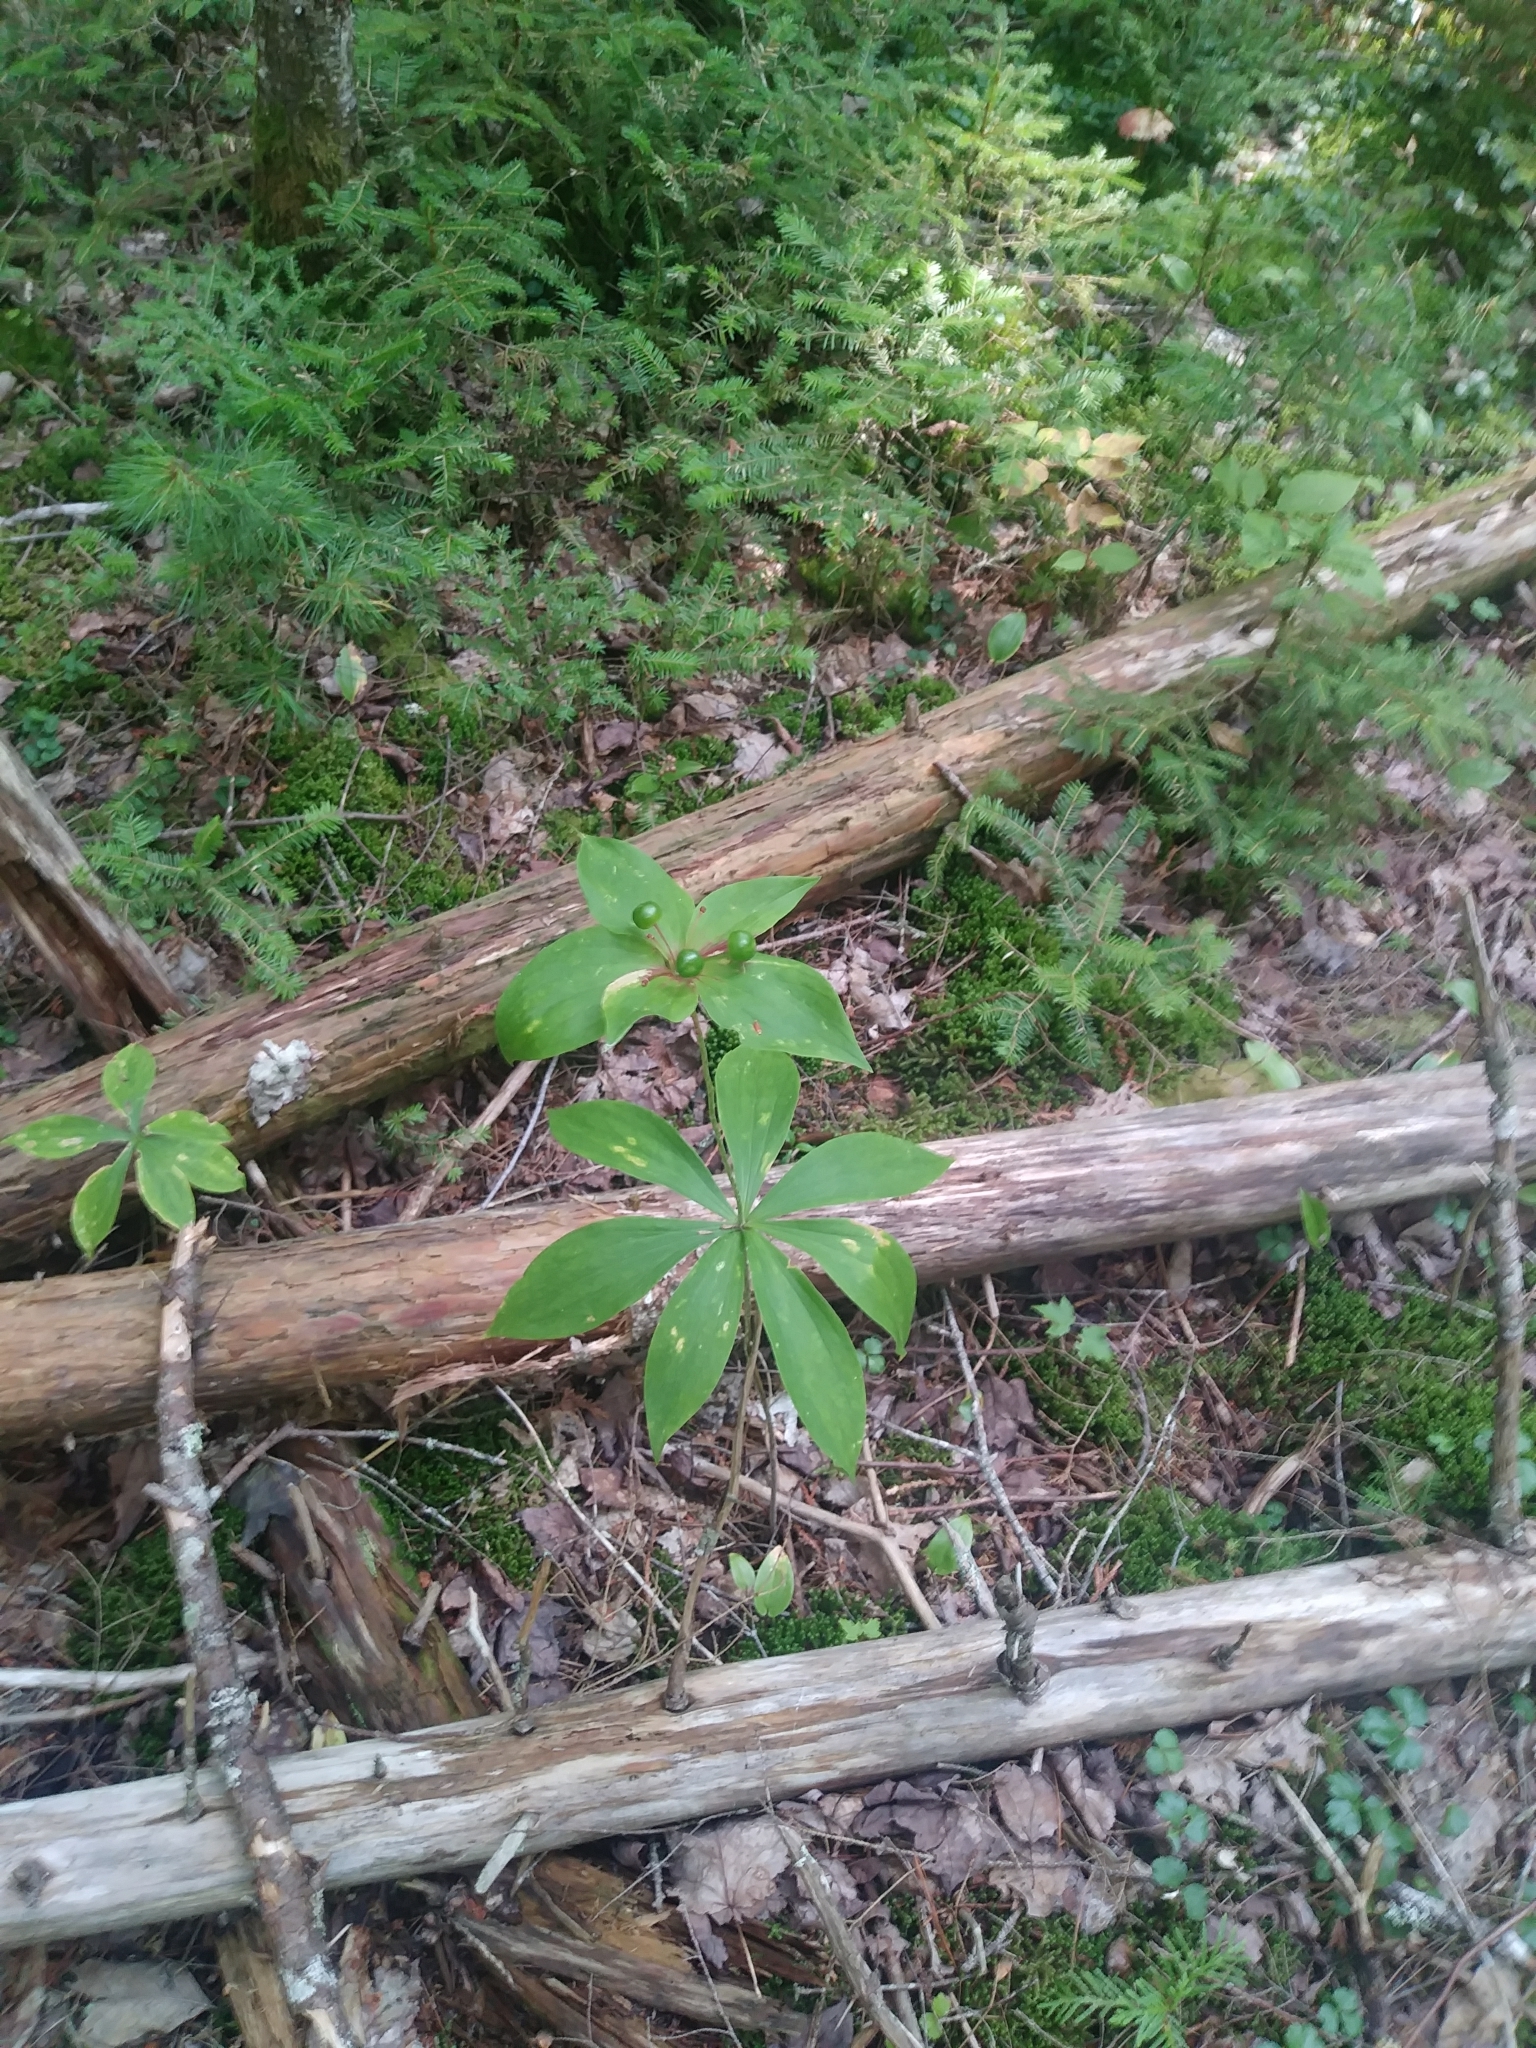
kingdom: Plantae
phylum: Tracheophyta
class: Liliopsida
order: Liliales
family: Liliaceae
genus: Medeola
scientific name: Medeola virginiana
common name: Indian cucumber-root
